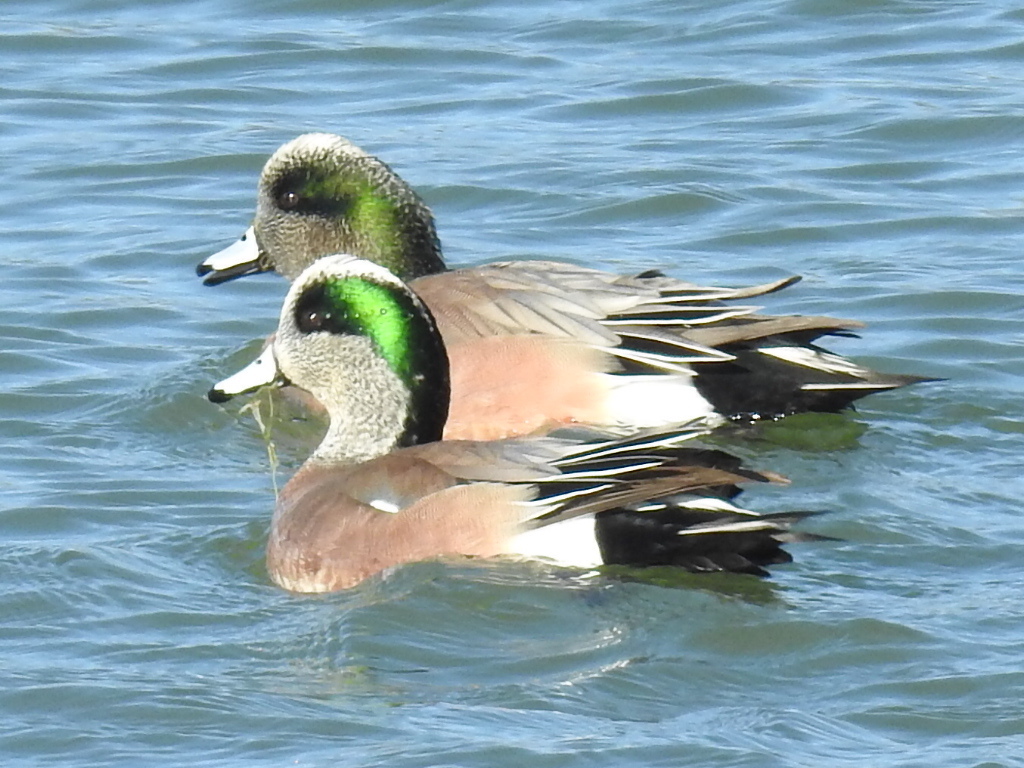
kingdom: Animalia
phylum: Chordata
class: Aves
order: Anseriformes
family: Anatidae
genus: Mareca
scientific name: Mareca americana
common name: American wigeon
